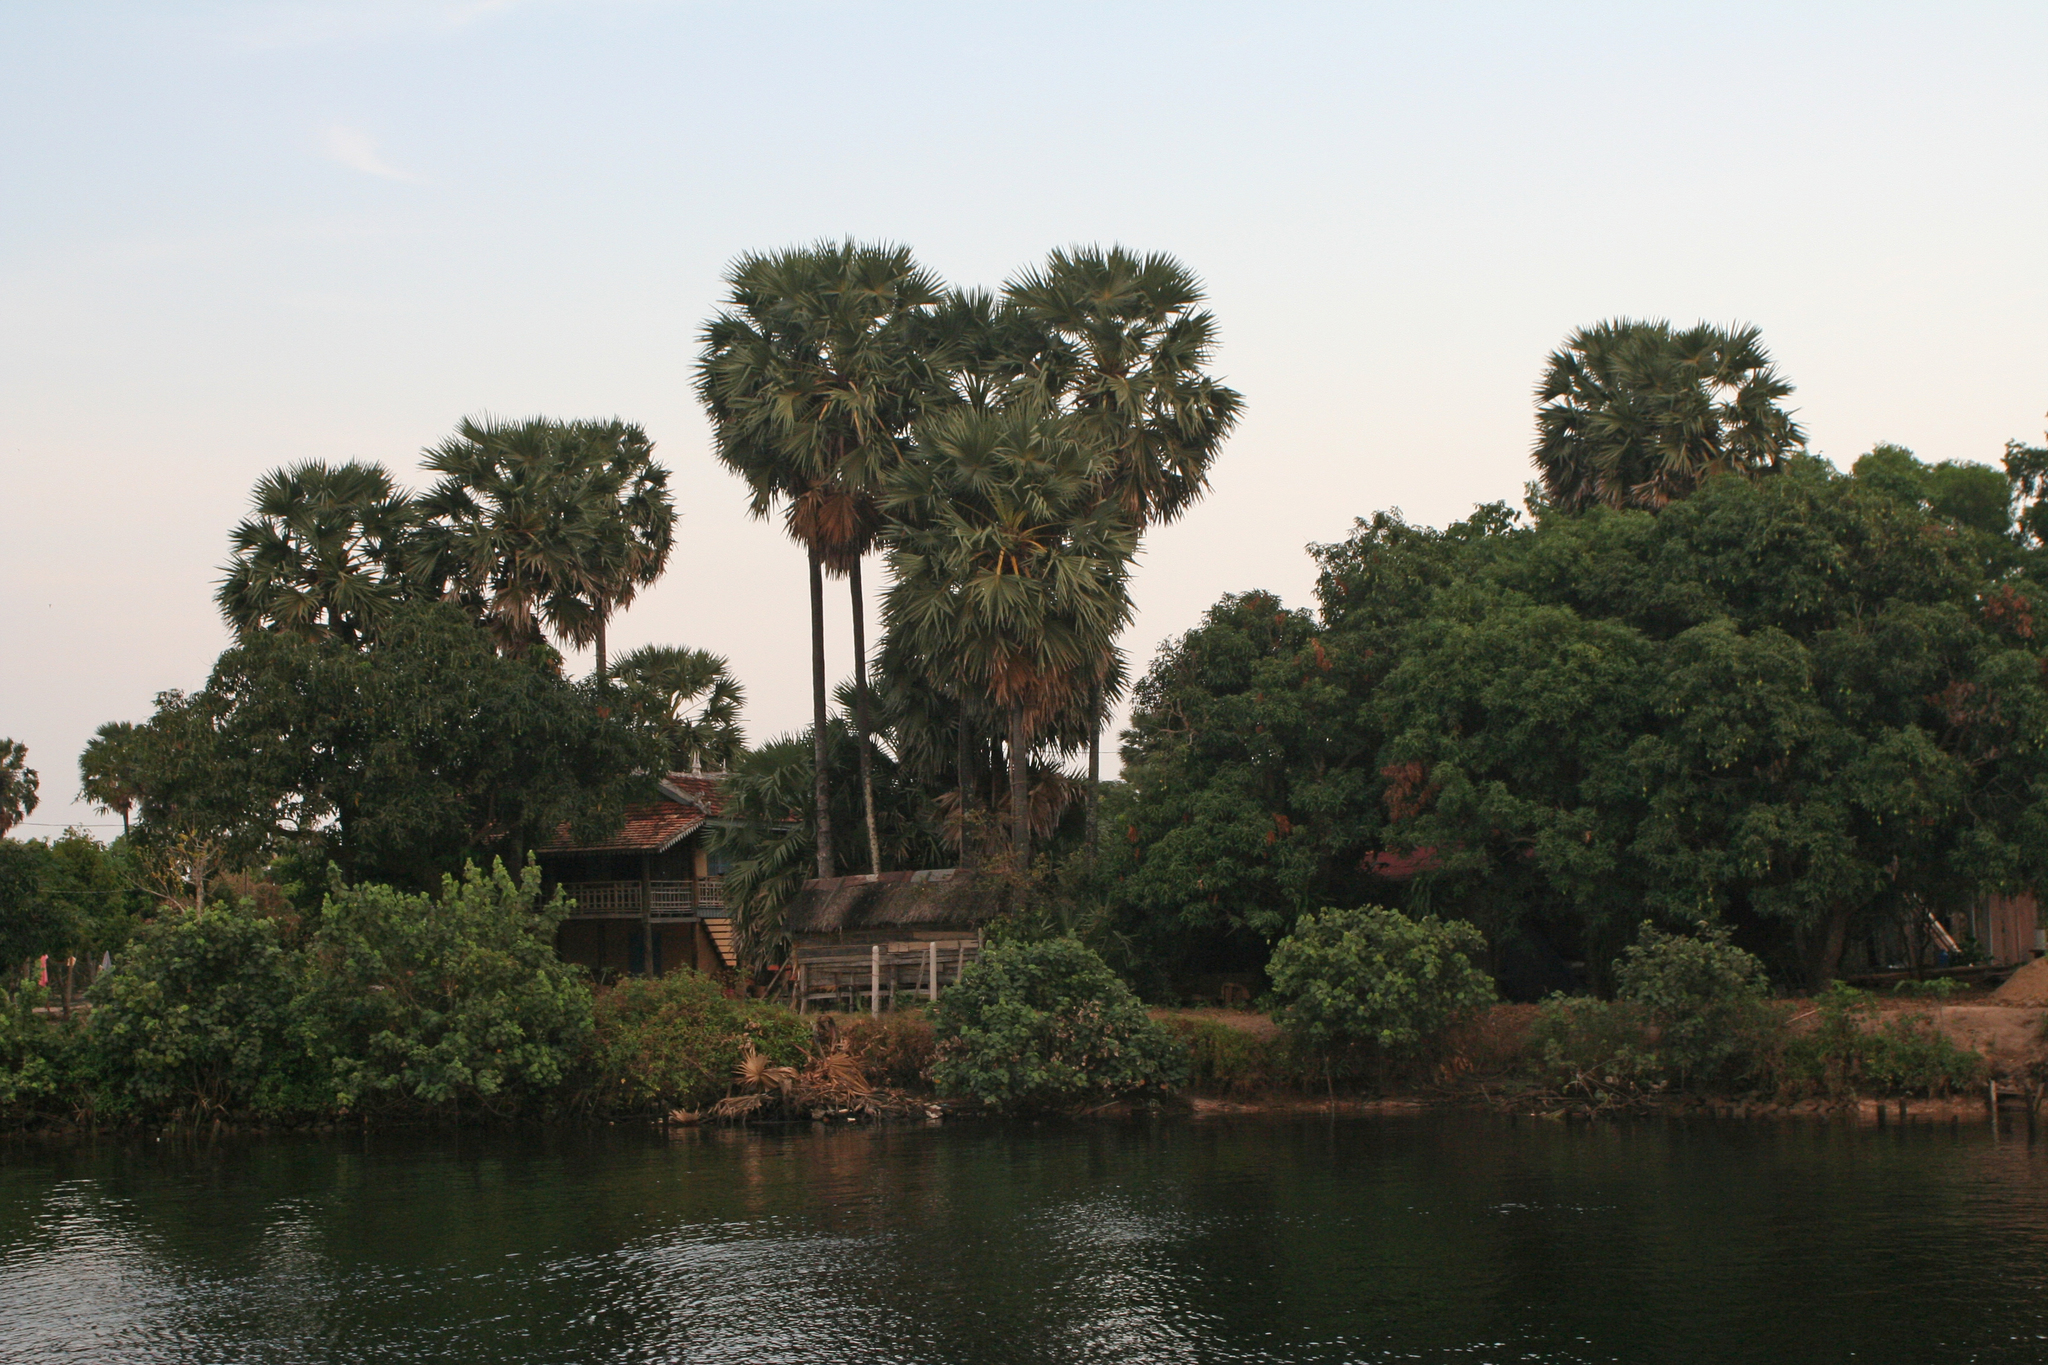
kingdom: Plantae
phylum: Tracheophyta
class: Liliopsida
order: Arecales
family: Arecaceae
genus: Borassus
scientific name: Borassus flabellifer
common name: Palmyra palm
